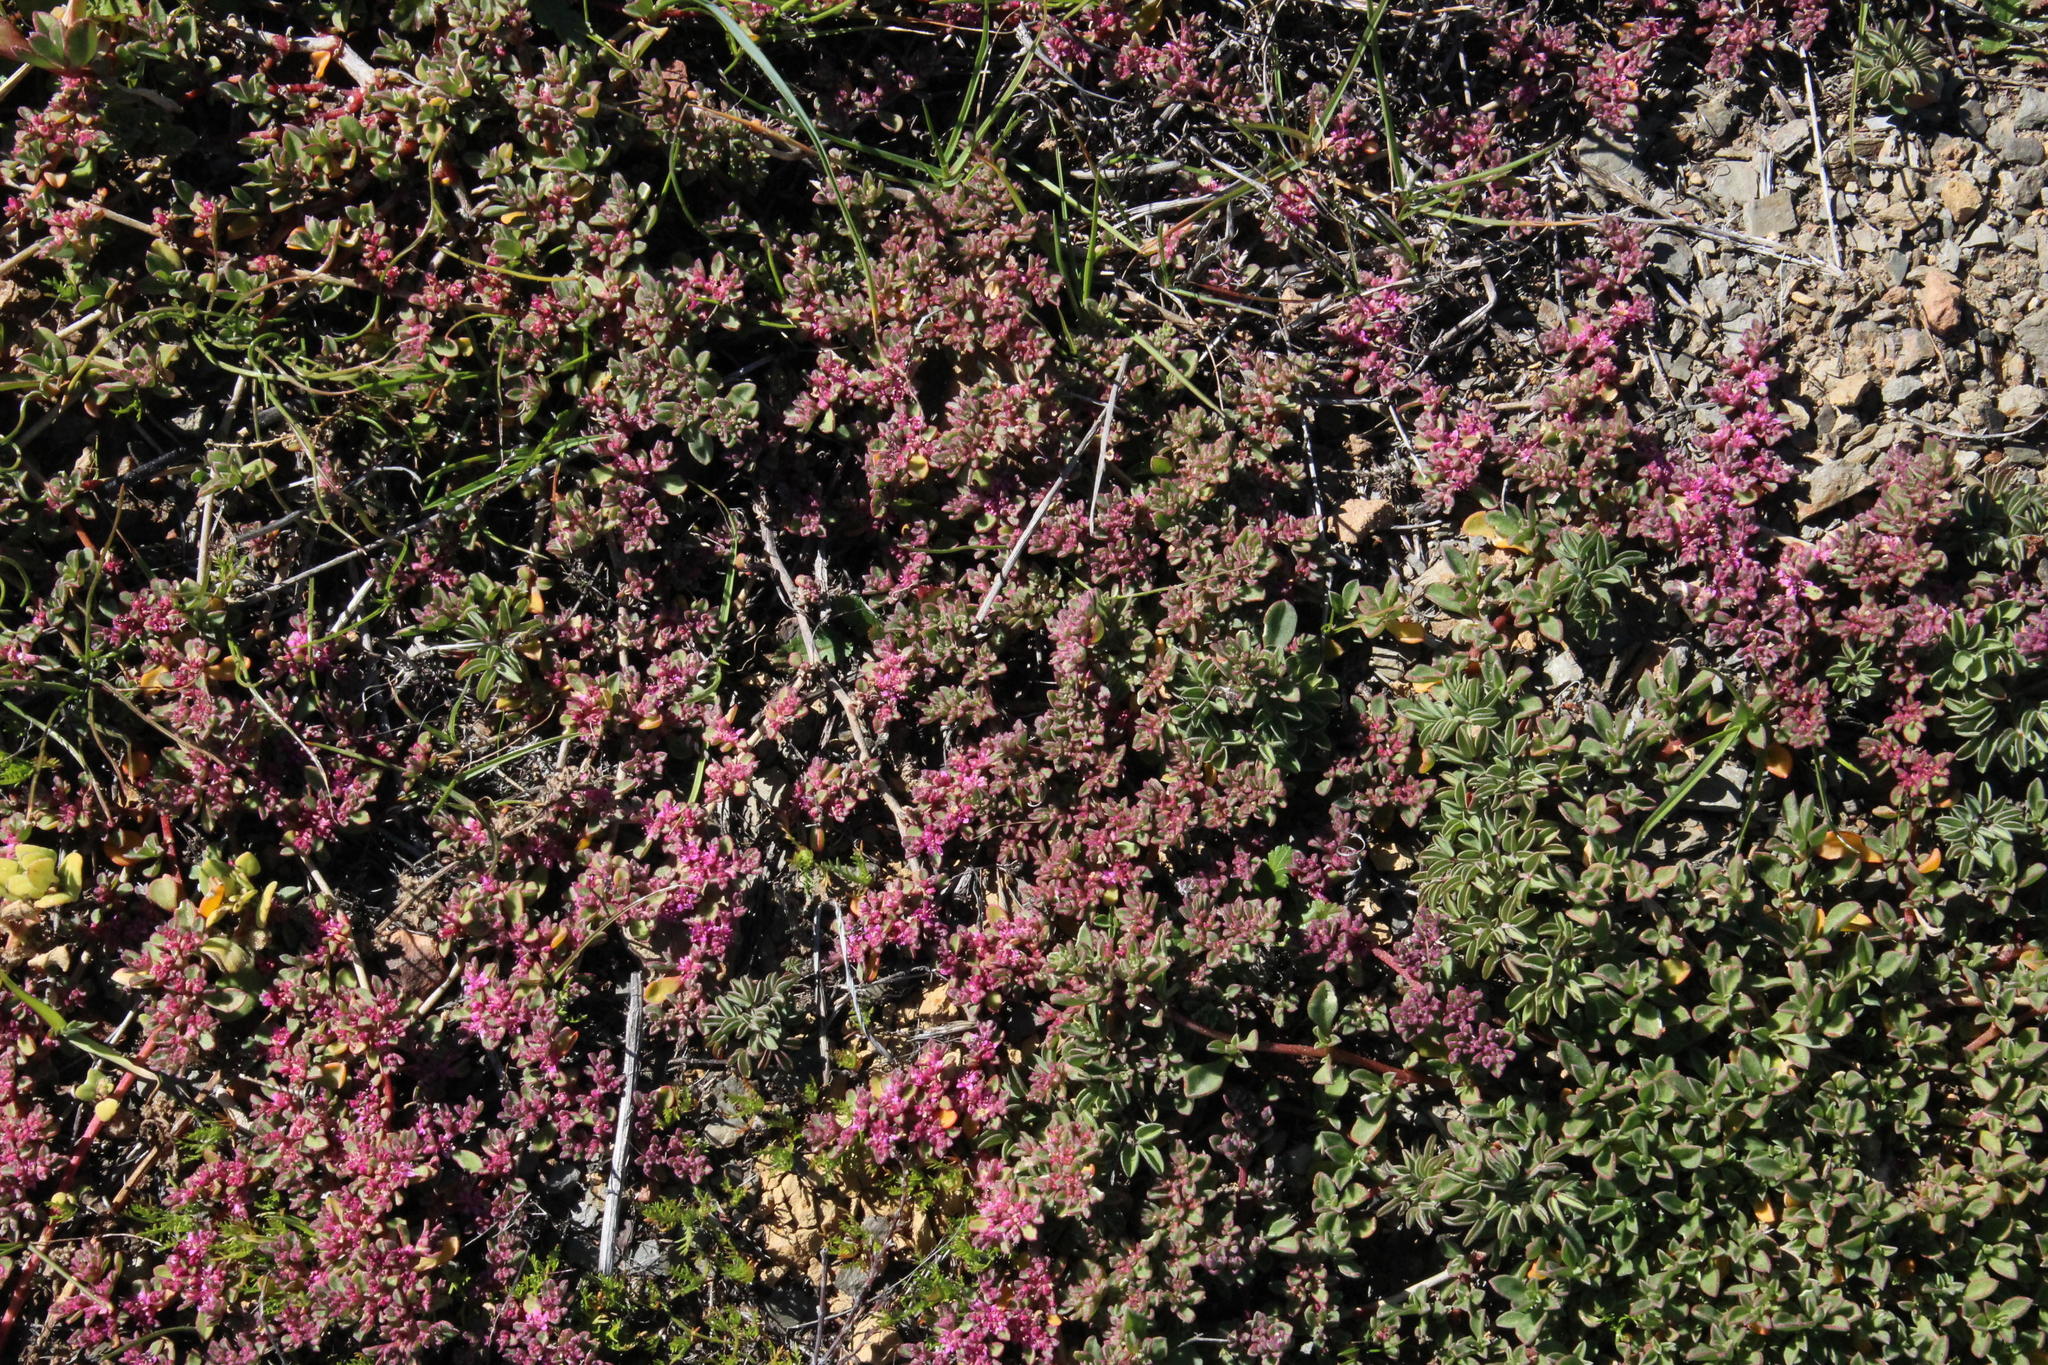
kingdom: Plantae
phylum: Tracheophyta
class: Magnoliopsida
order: Caryophyllales
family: Aizoaceae
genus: Aizoon
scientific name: Aizoon paniculatum
